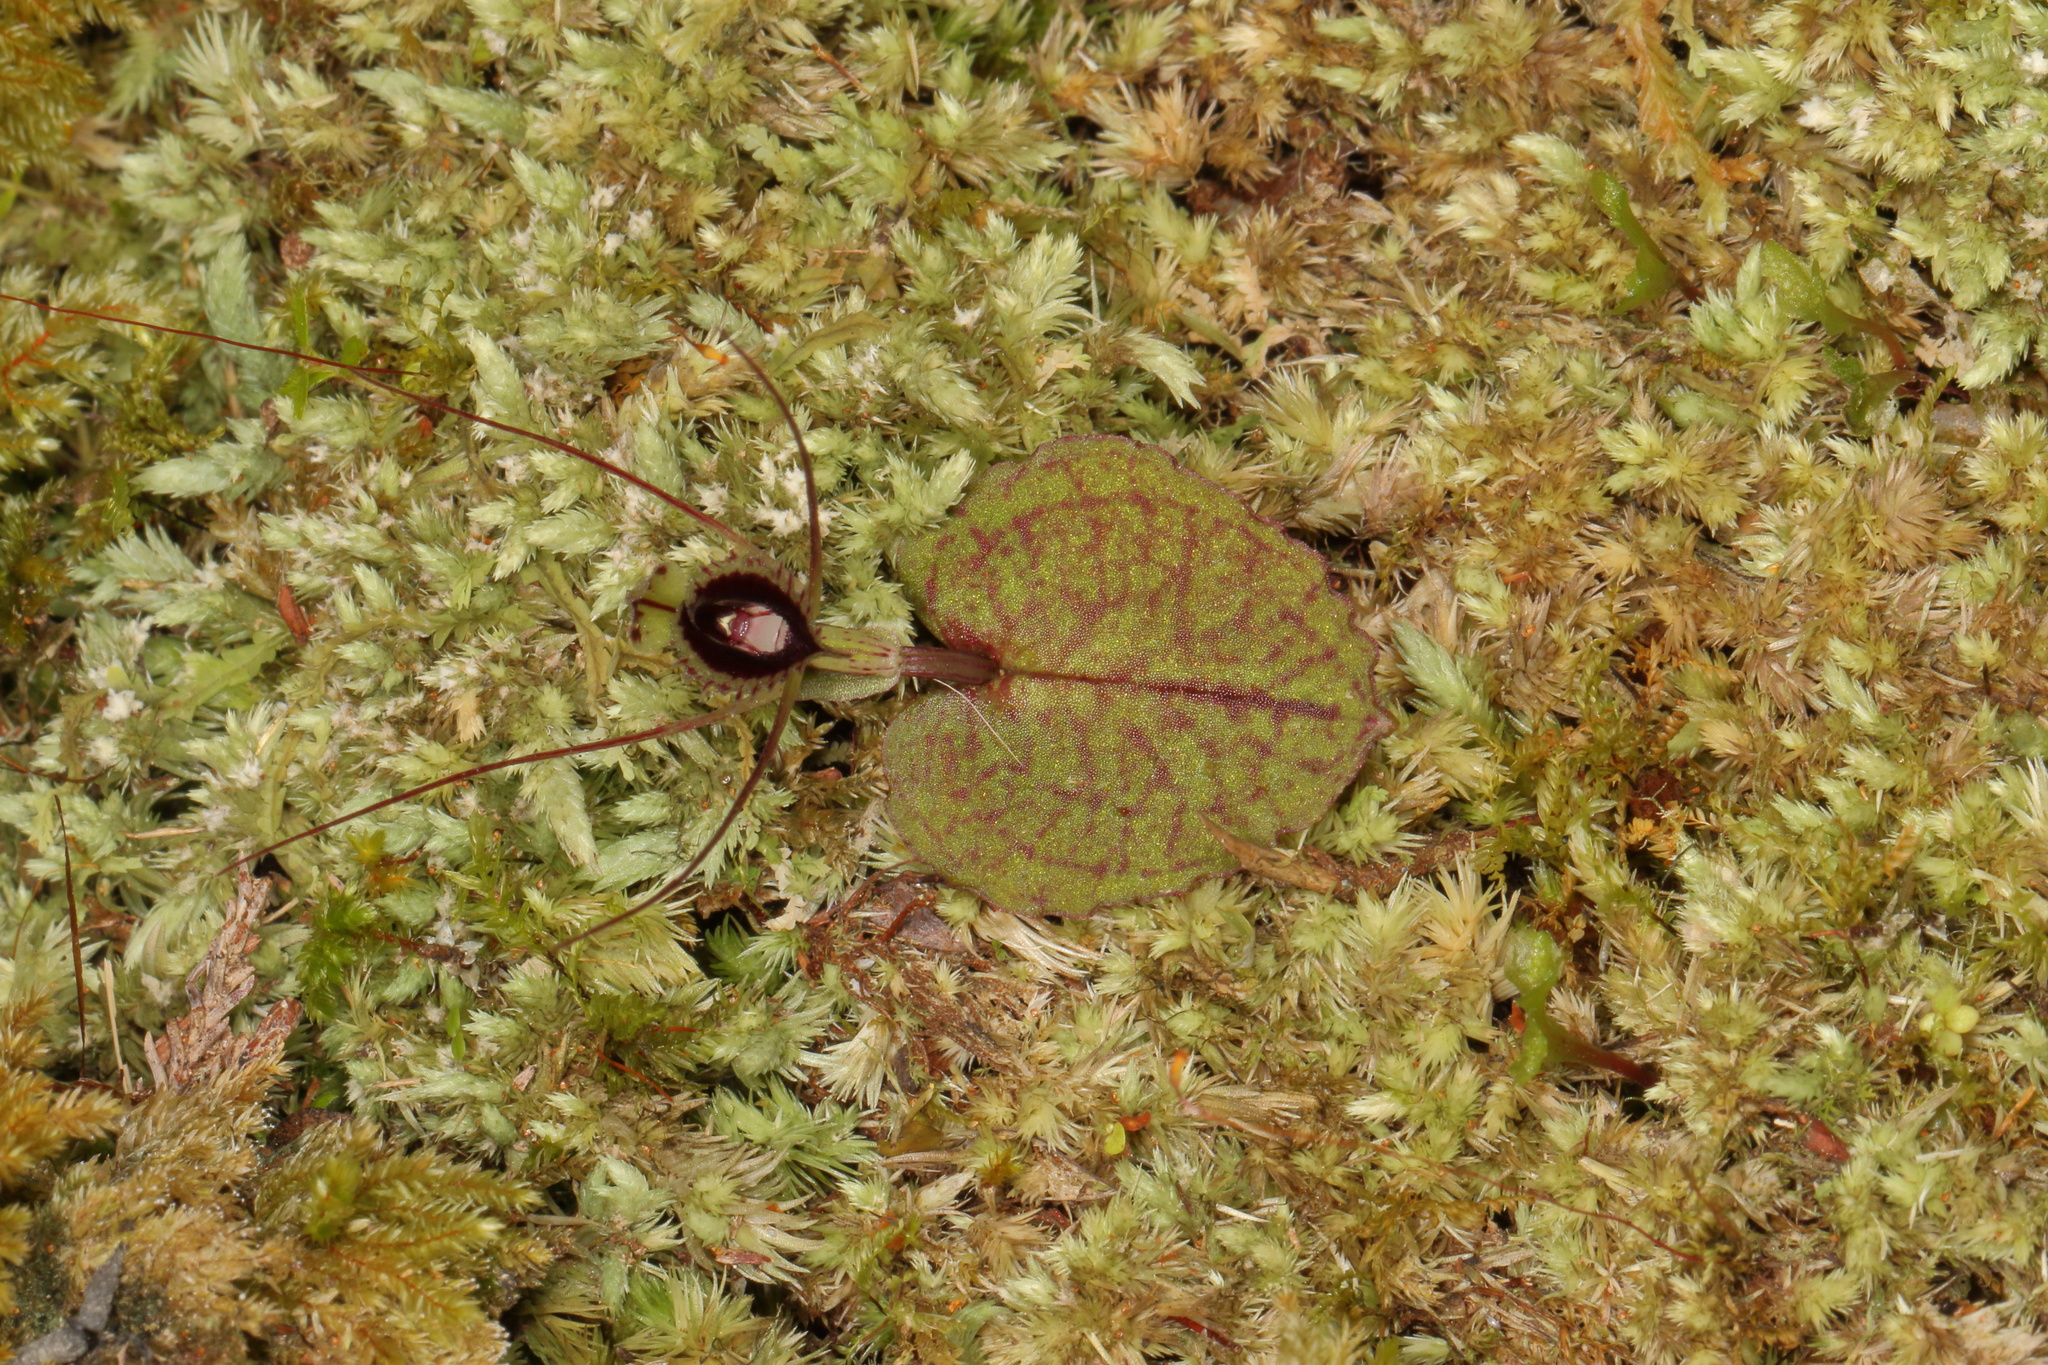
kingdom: Plantae
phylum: Tracheophyta
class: Liliopsida
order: Asparagales
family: Orchidaceae
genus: Corybas
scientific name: Corybas oblongus
